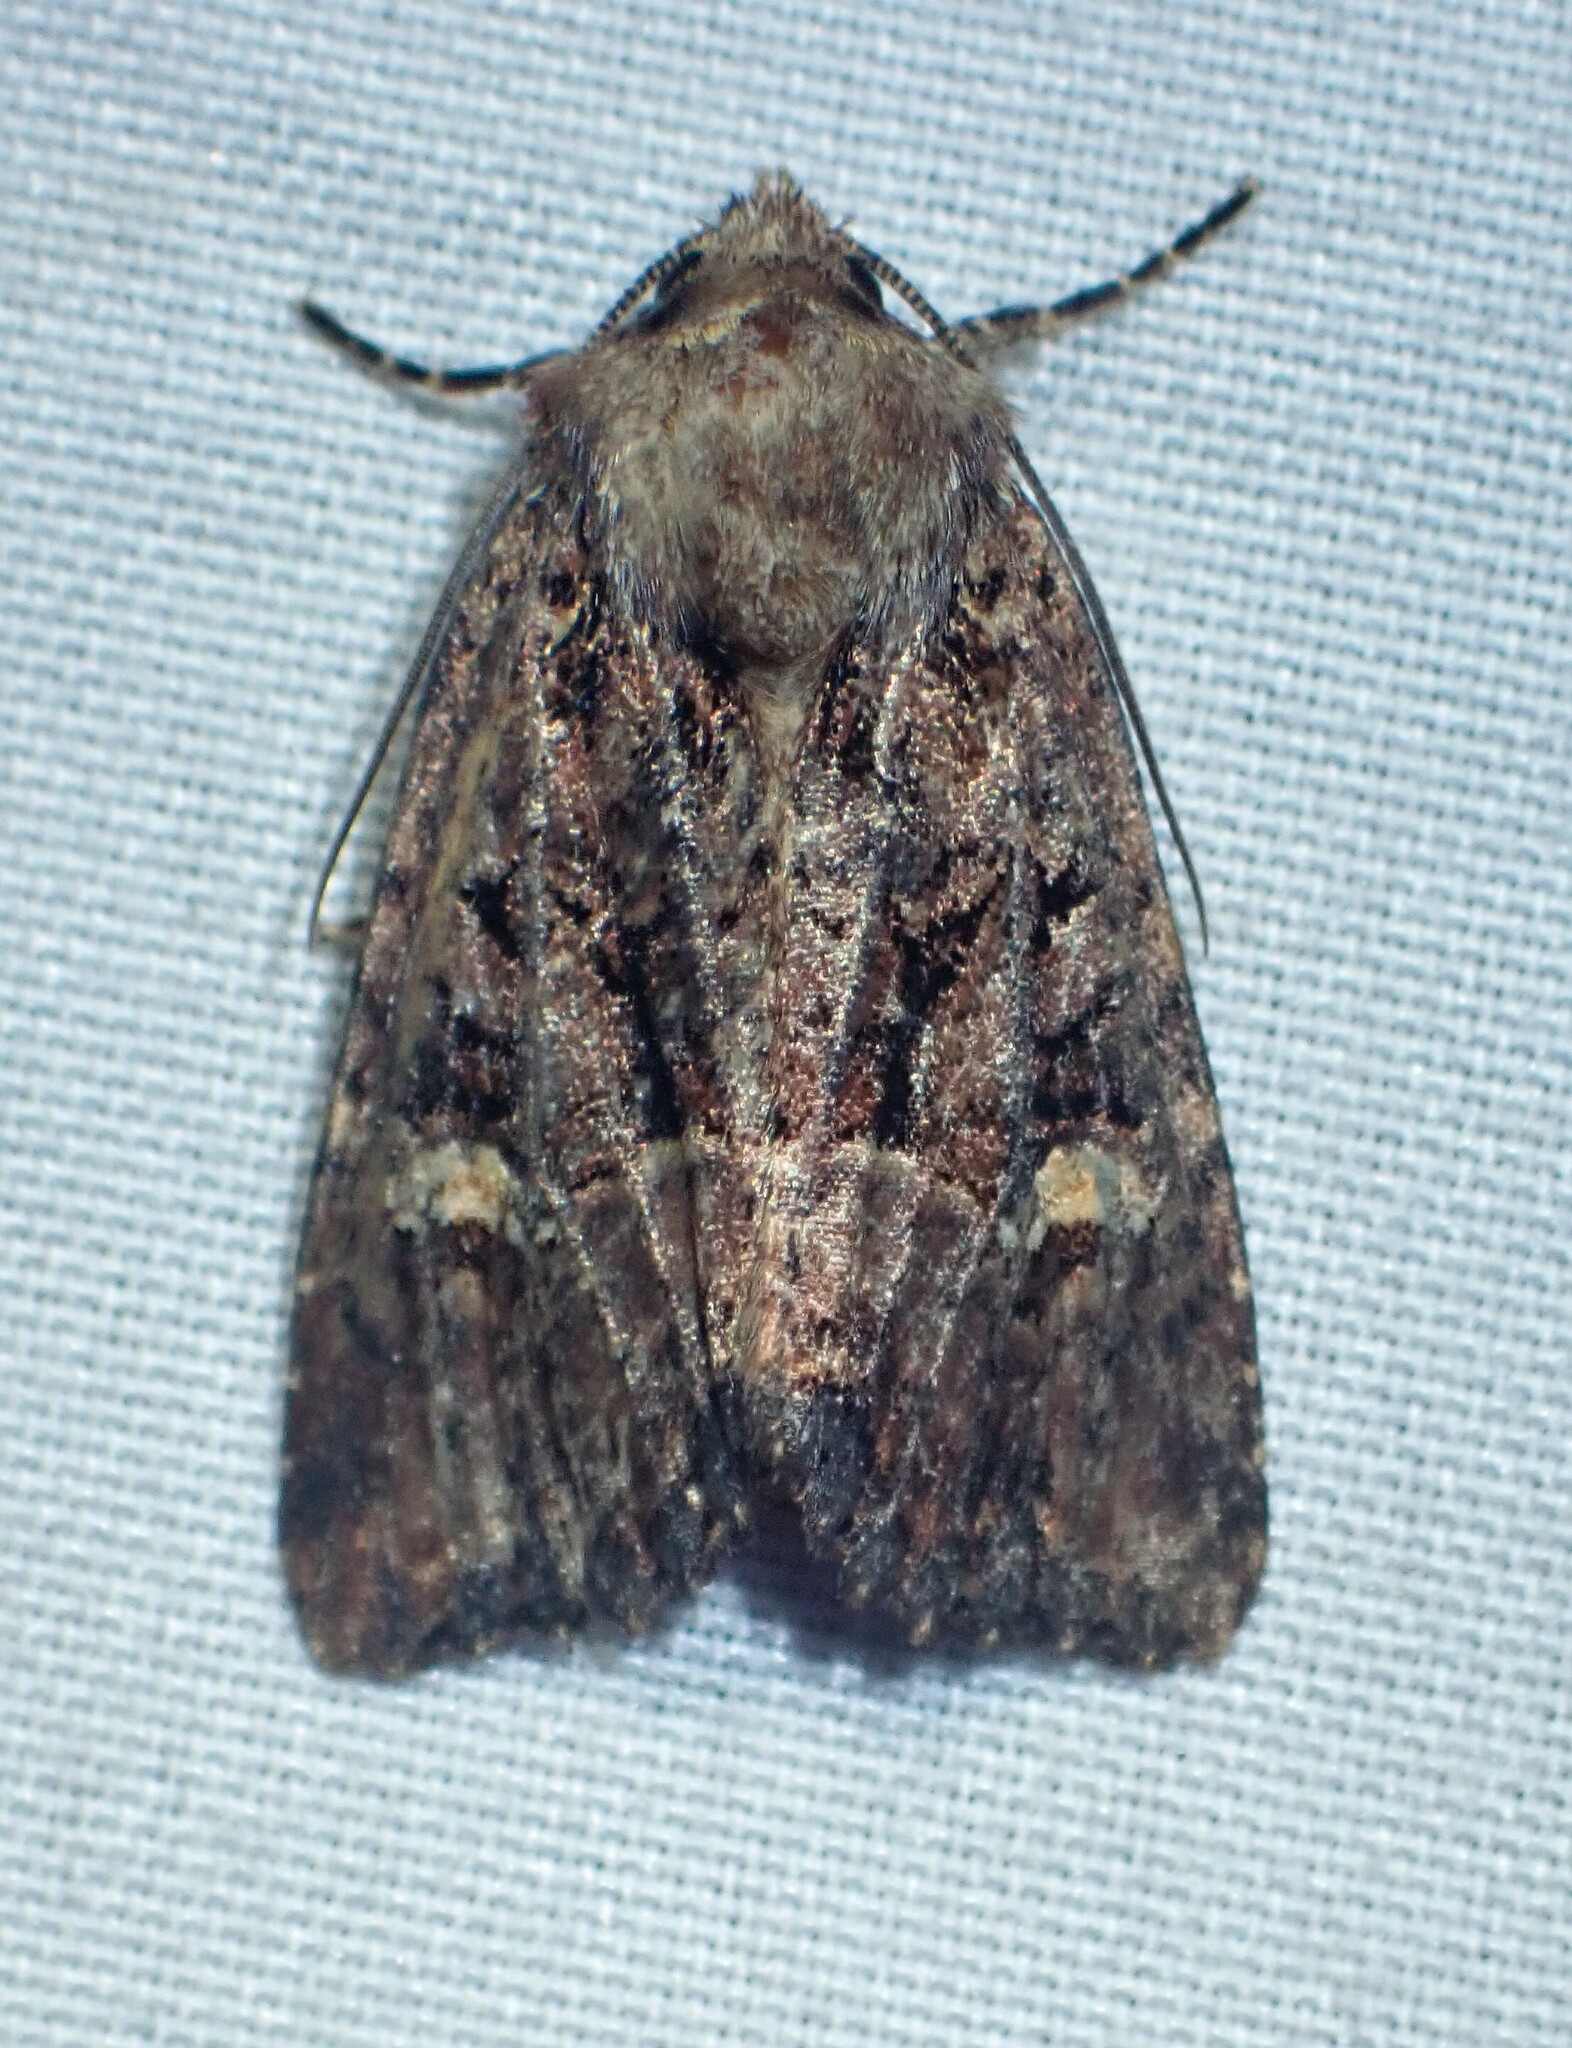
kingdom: Animalia
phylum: Arthropoda
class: Insecta
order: Lepidoptera
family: Noctuidae
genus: Mesapamea
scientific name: Mesapamea storai
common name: Owlet moth
